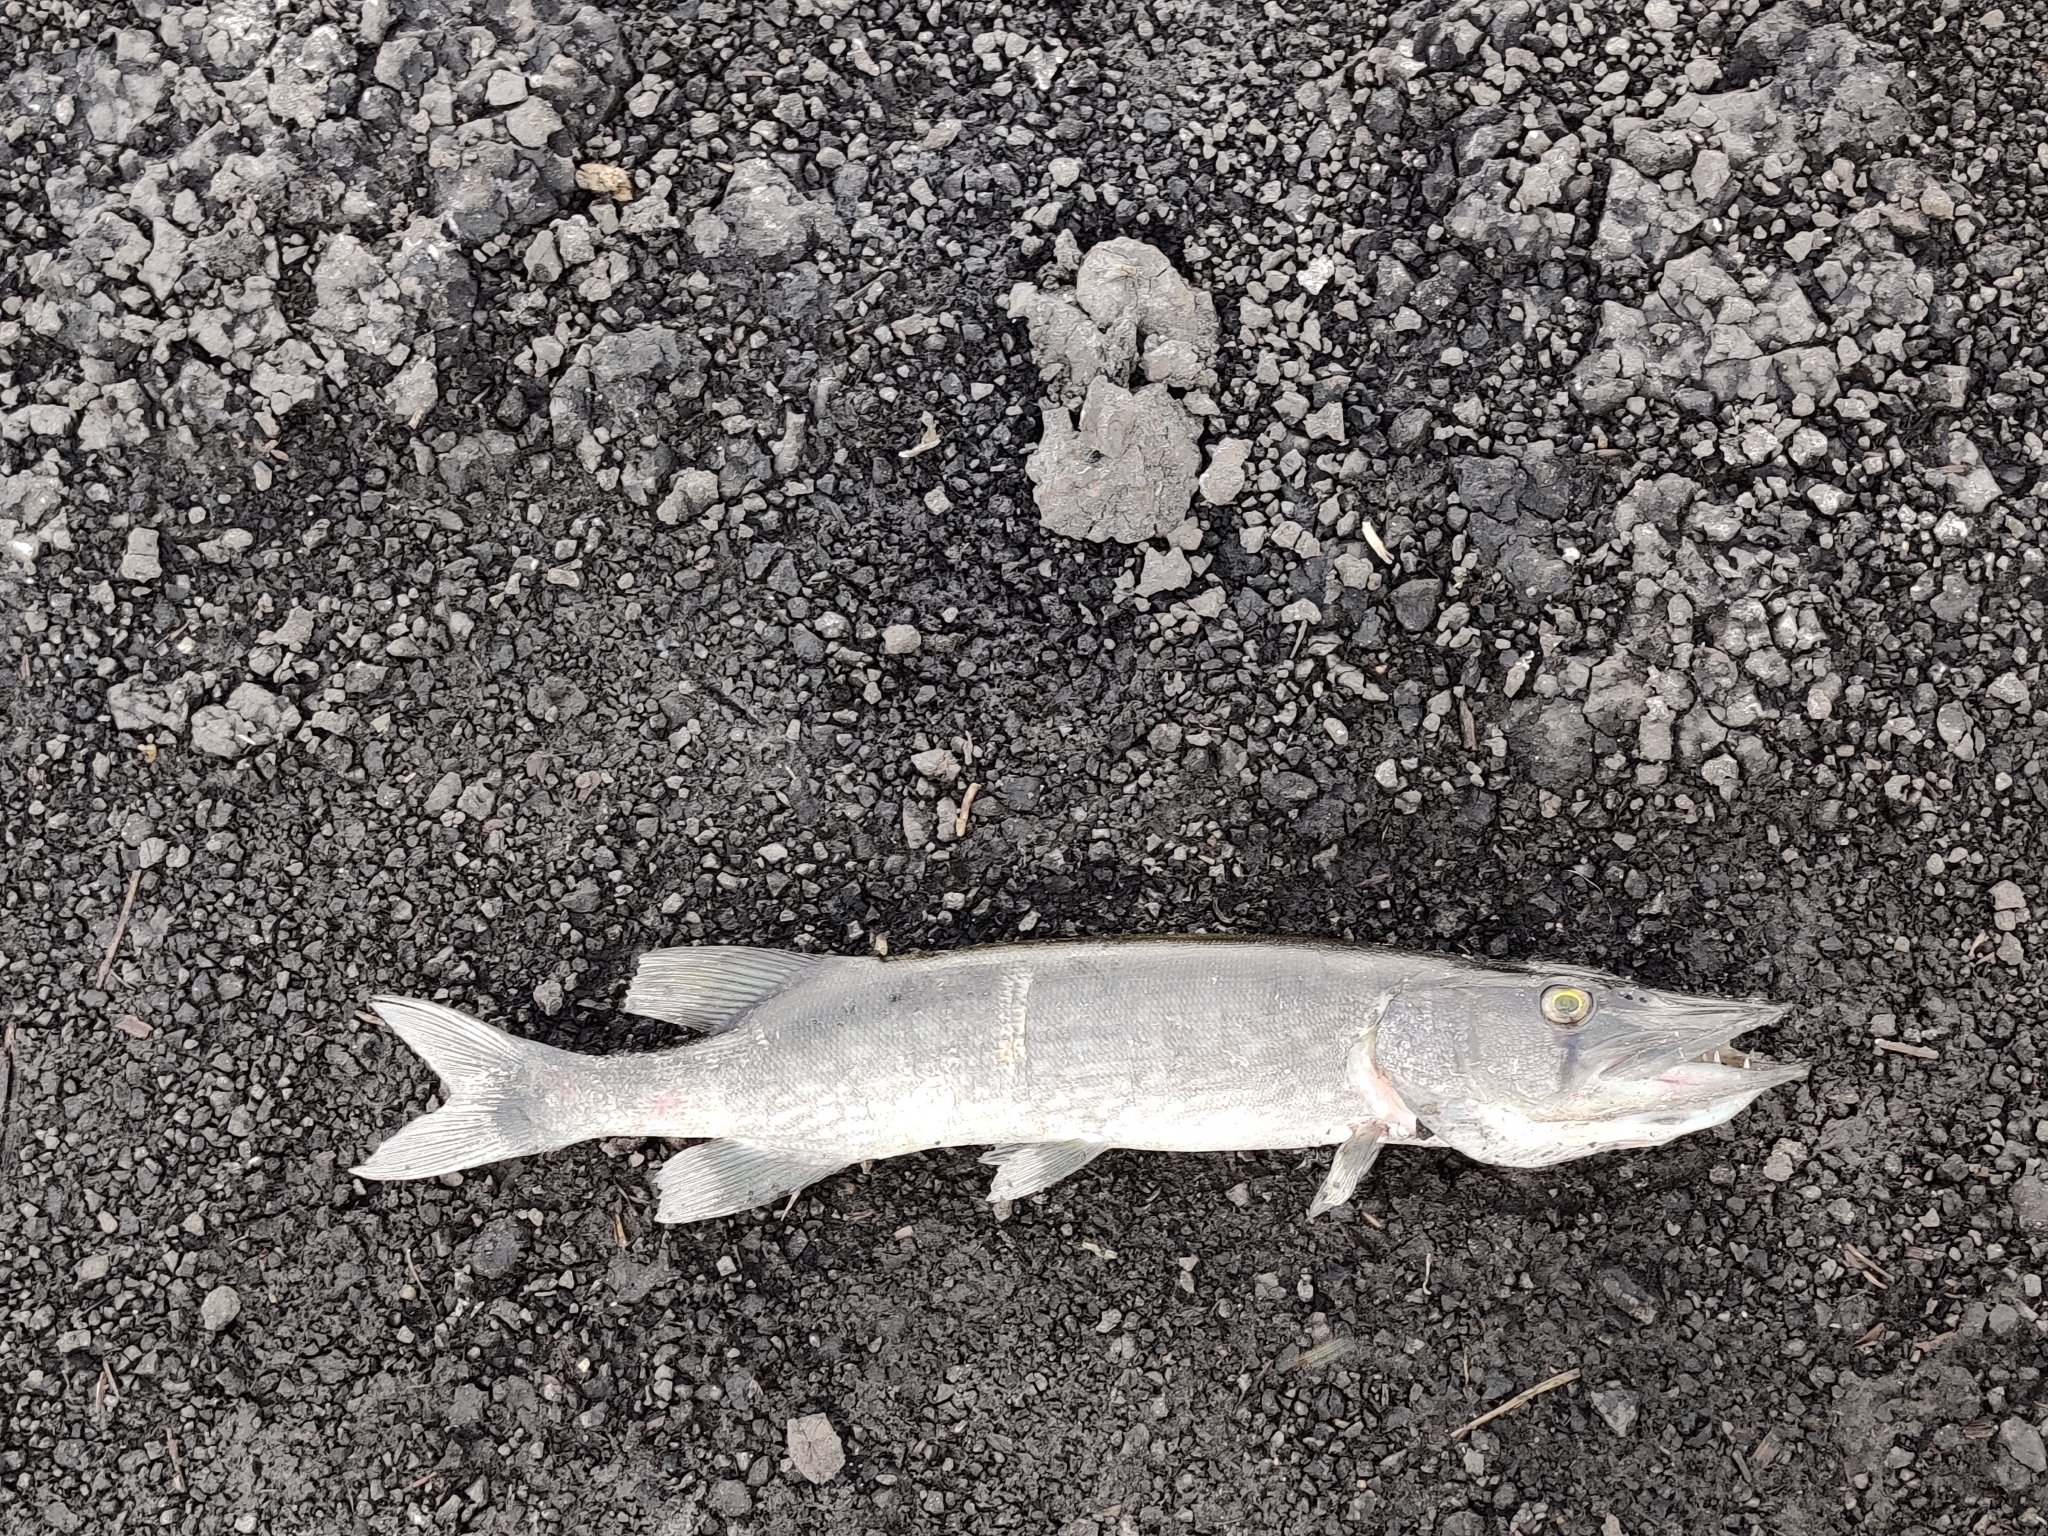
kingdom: Animalia
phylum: Chordata
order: Esociformes
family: Esocidae
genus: Esox
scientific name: Esox niger
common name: Chain pickerel
